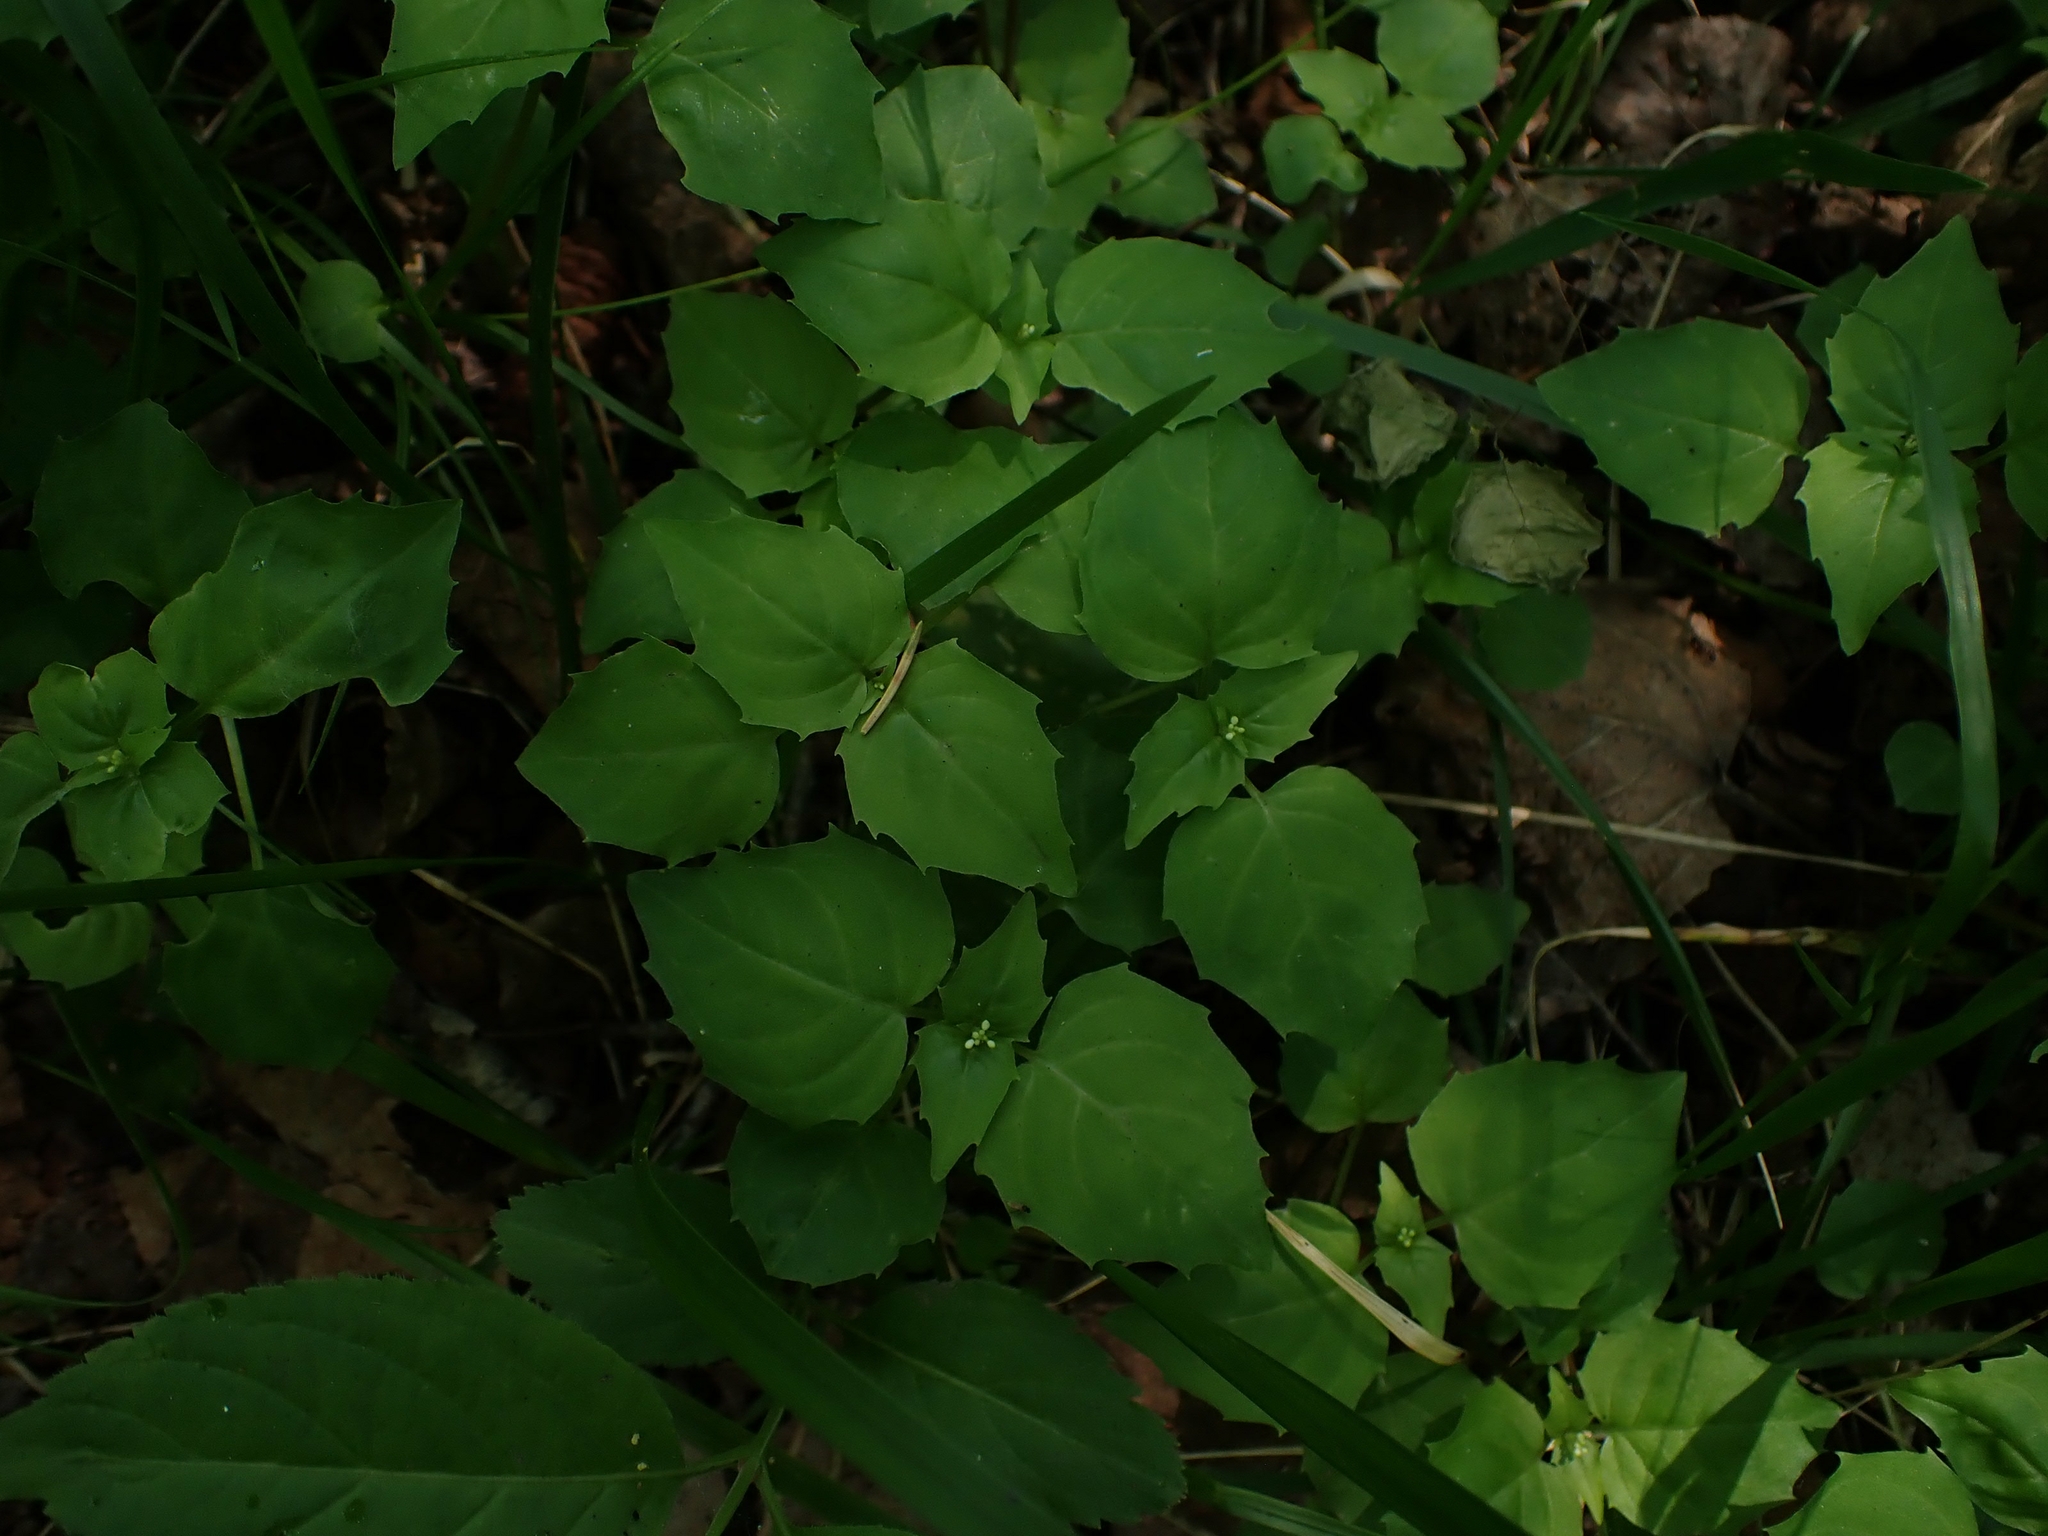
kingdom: Plantae
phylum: Tracheophyta
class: Magnoliopsida
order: Myrtales
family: Onagraceae
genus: Circaea
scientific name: Circaea alpina
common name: Alpine enchanter's-nightshade
